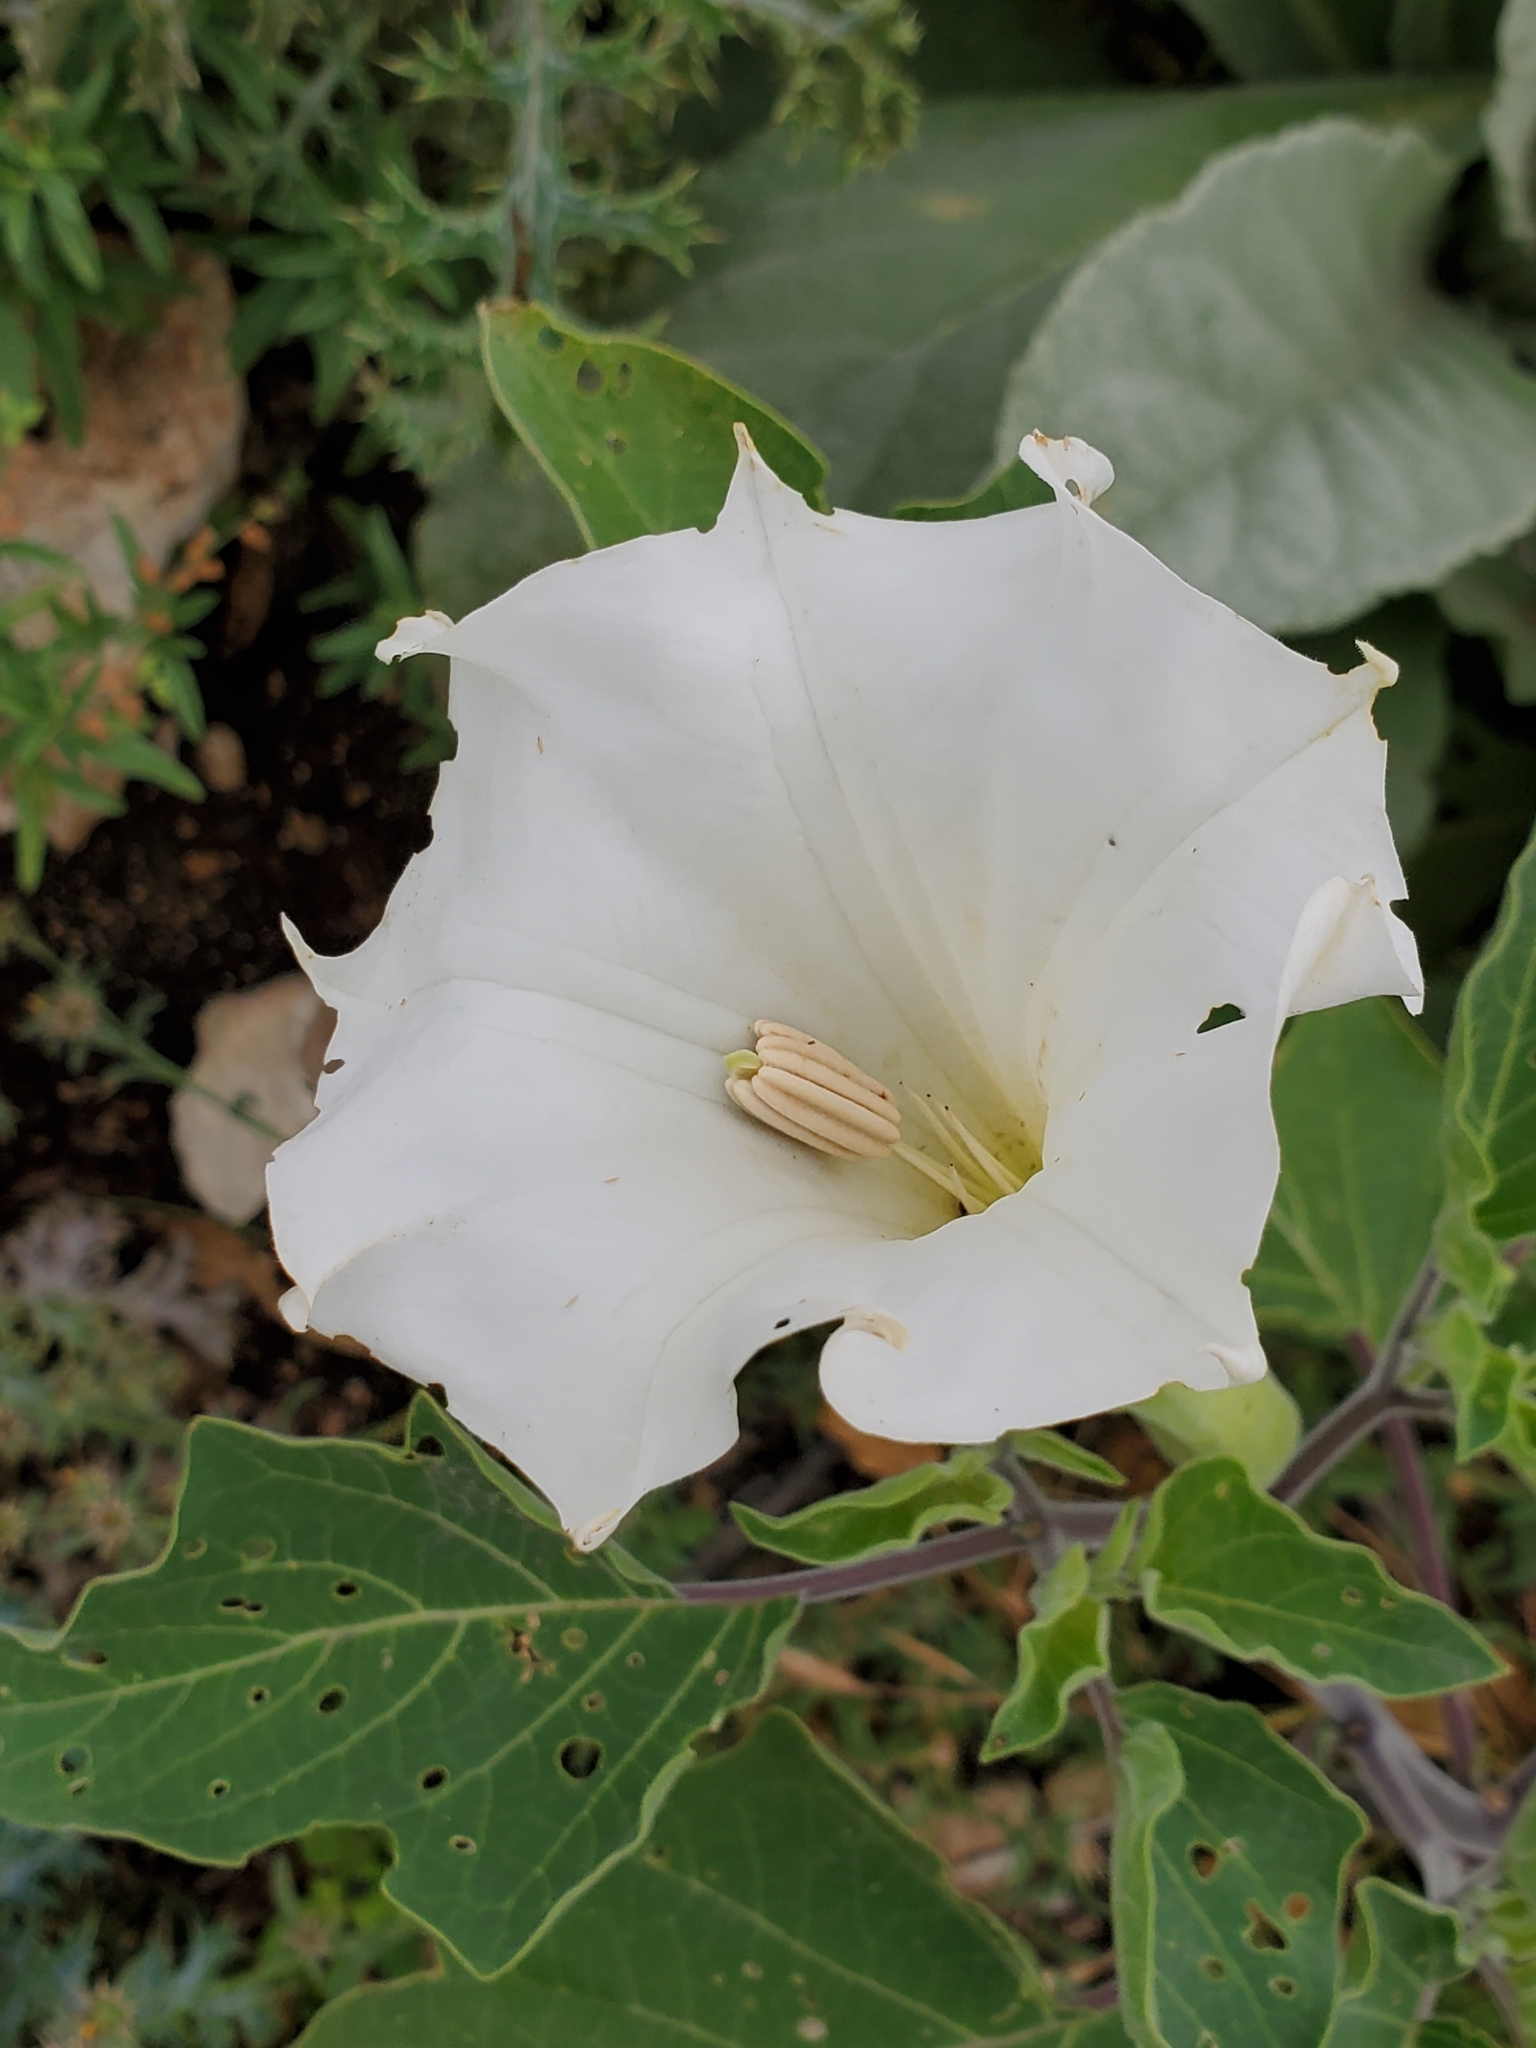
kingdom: Plantae
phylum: Tracheophyta
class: Magnoliopsida
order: Solanales
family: Solanaceae
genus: Datura
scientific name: Datura innoxia
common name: Downy thorn-apple
